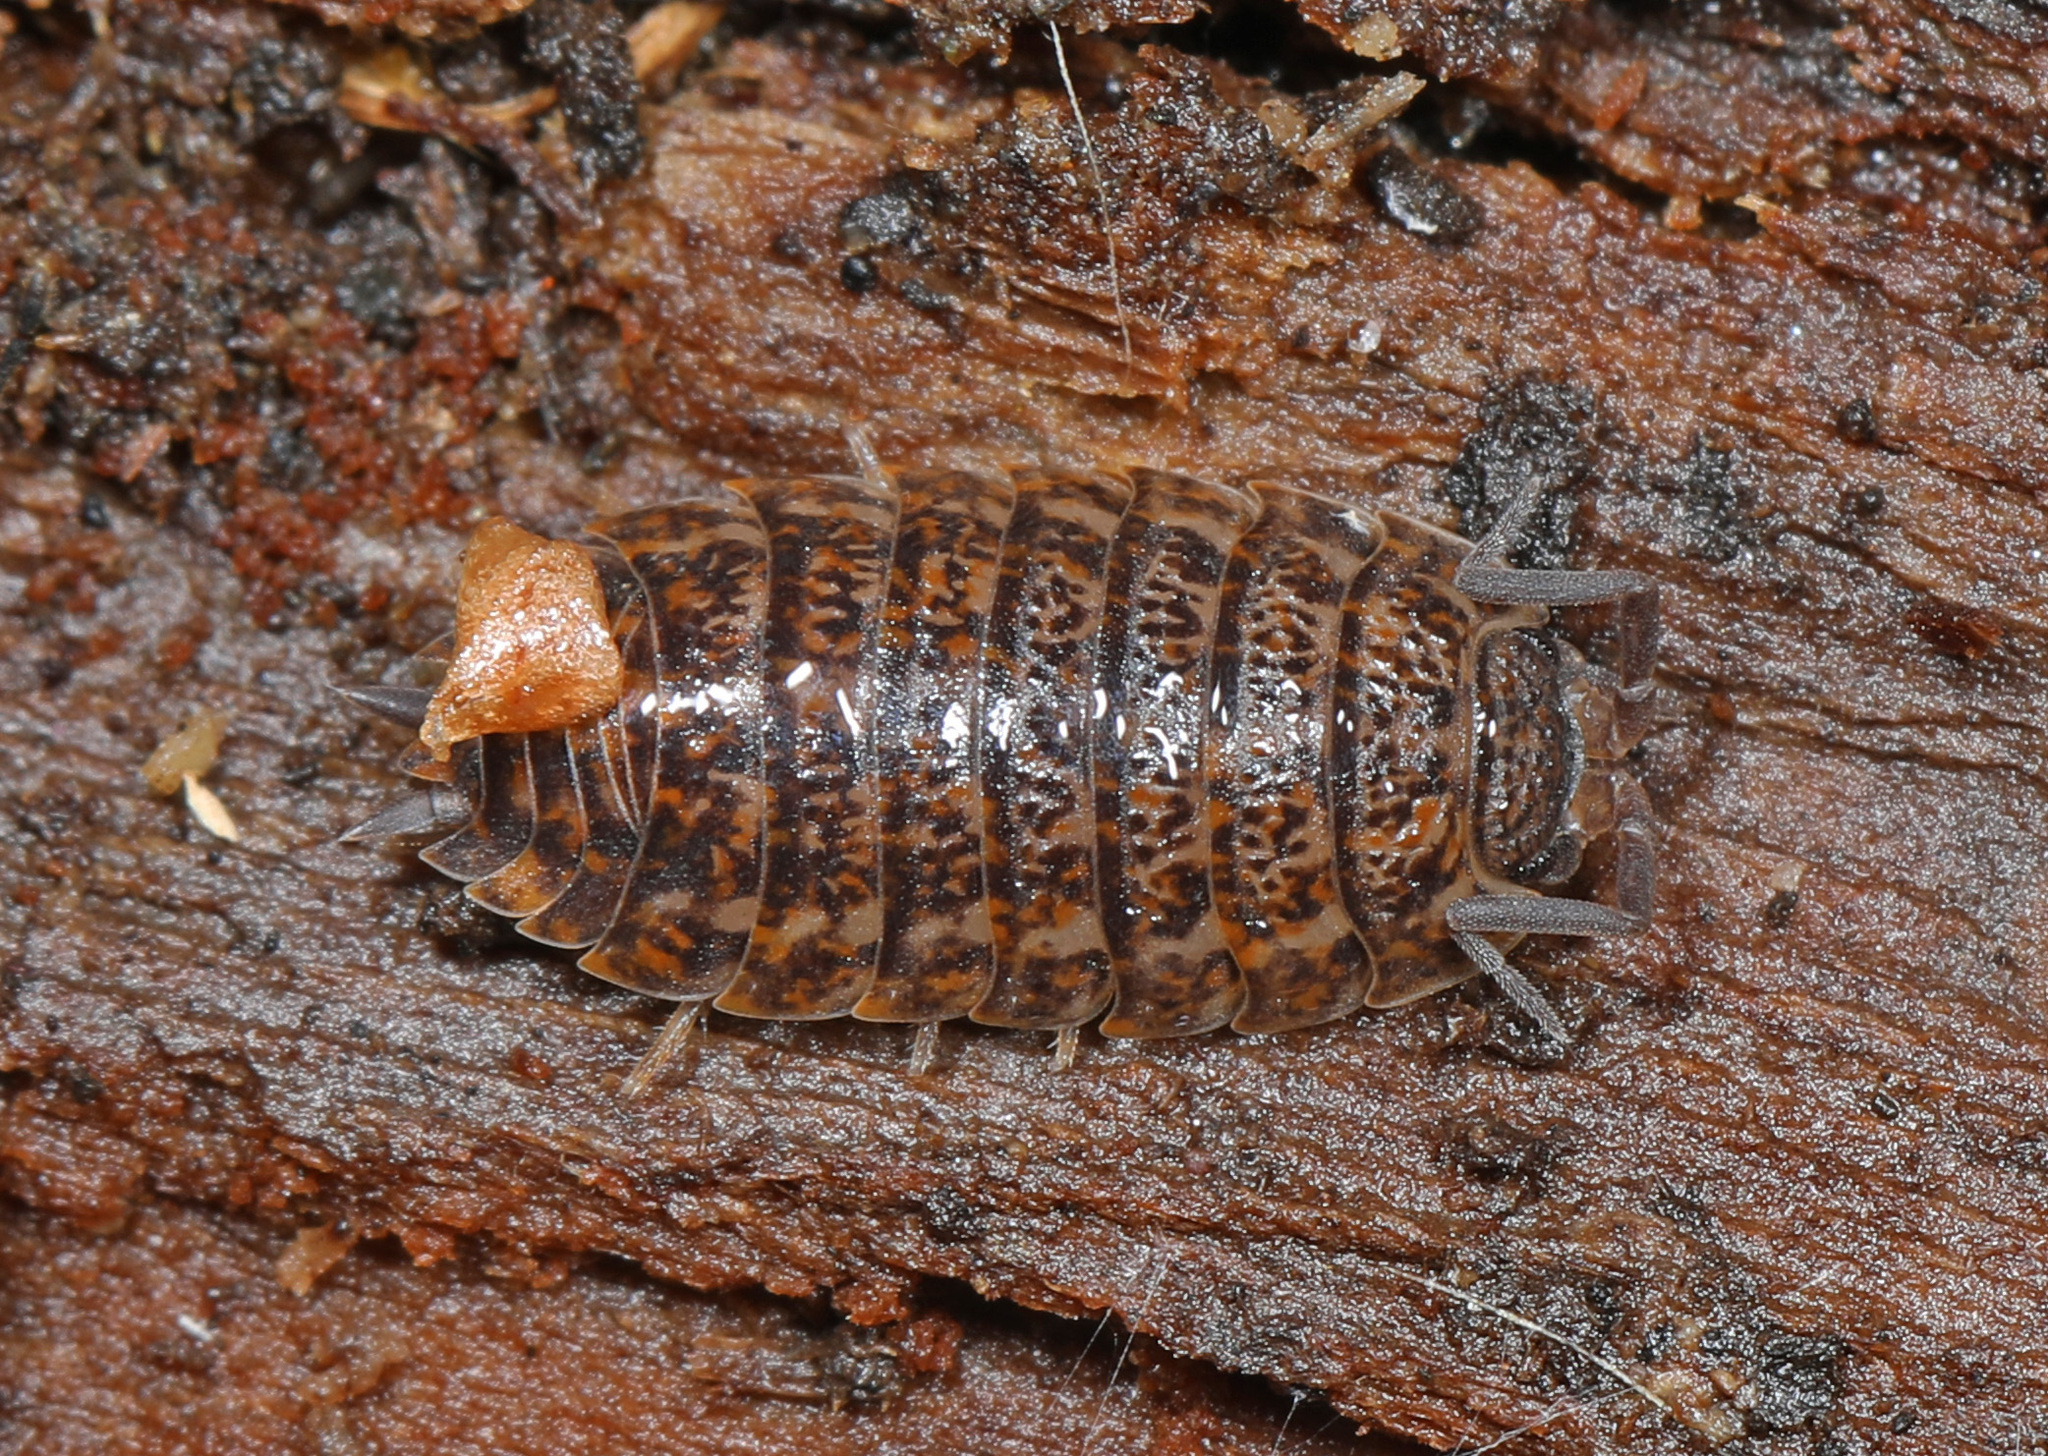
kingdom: Animalia
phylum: Arthropoda
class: Malacostraca
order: Isopoda
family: Trachelipodidae
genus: Trachelipus
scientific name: Trachelipus rathkii
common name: Isopod
